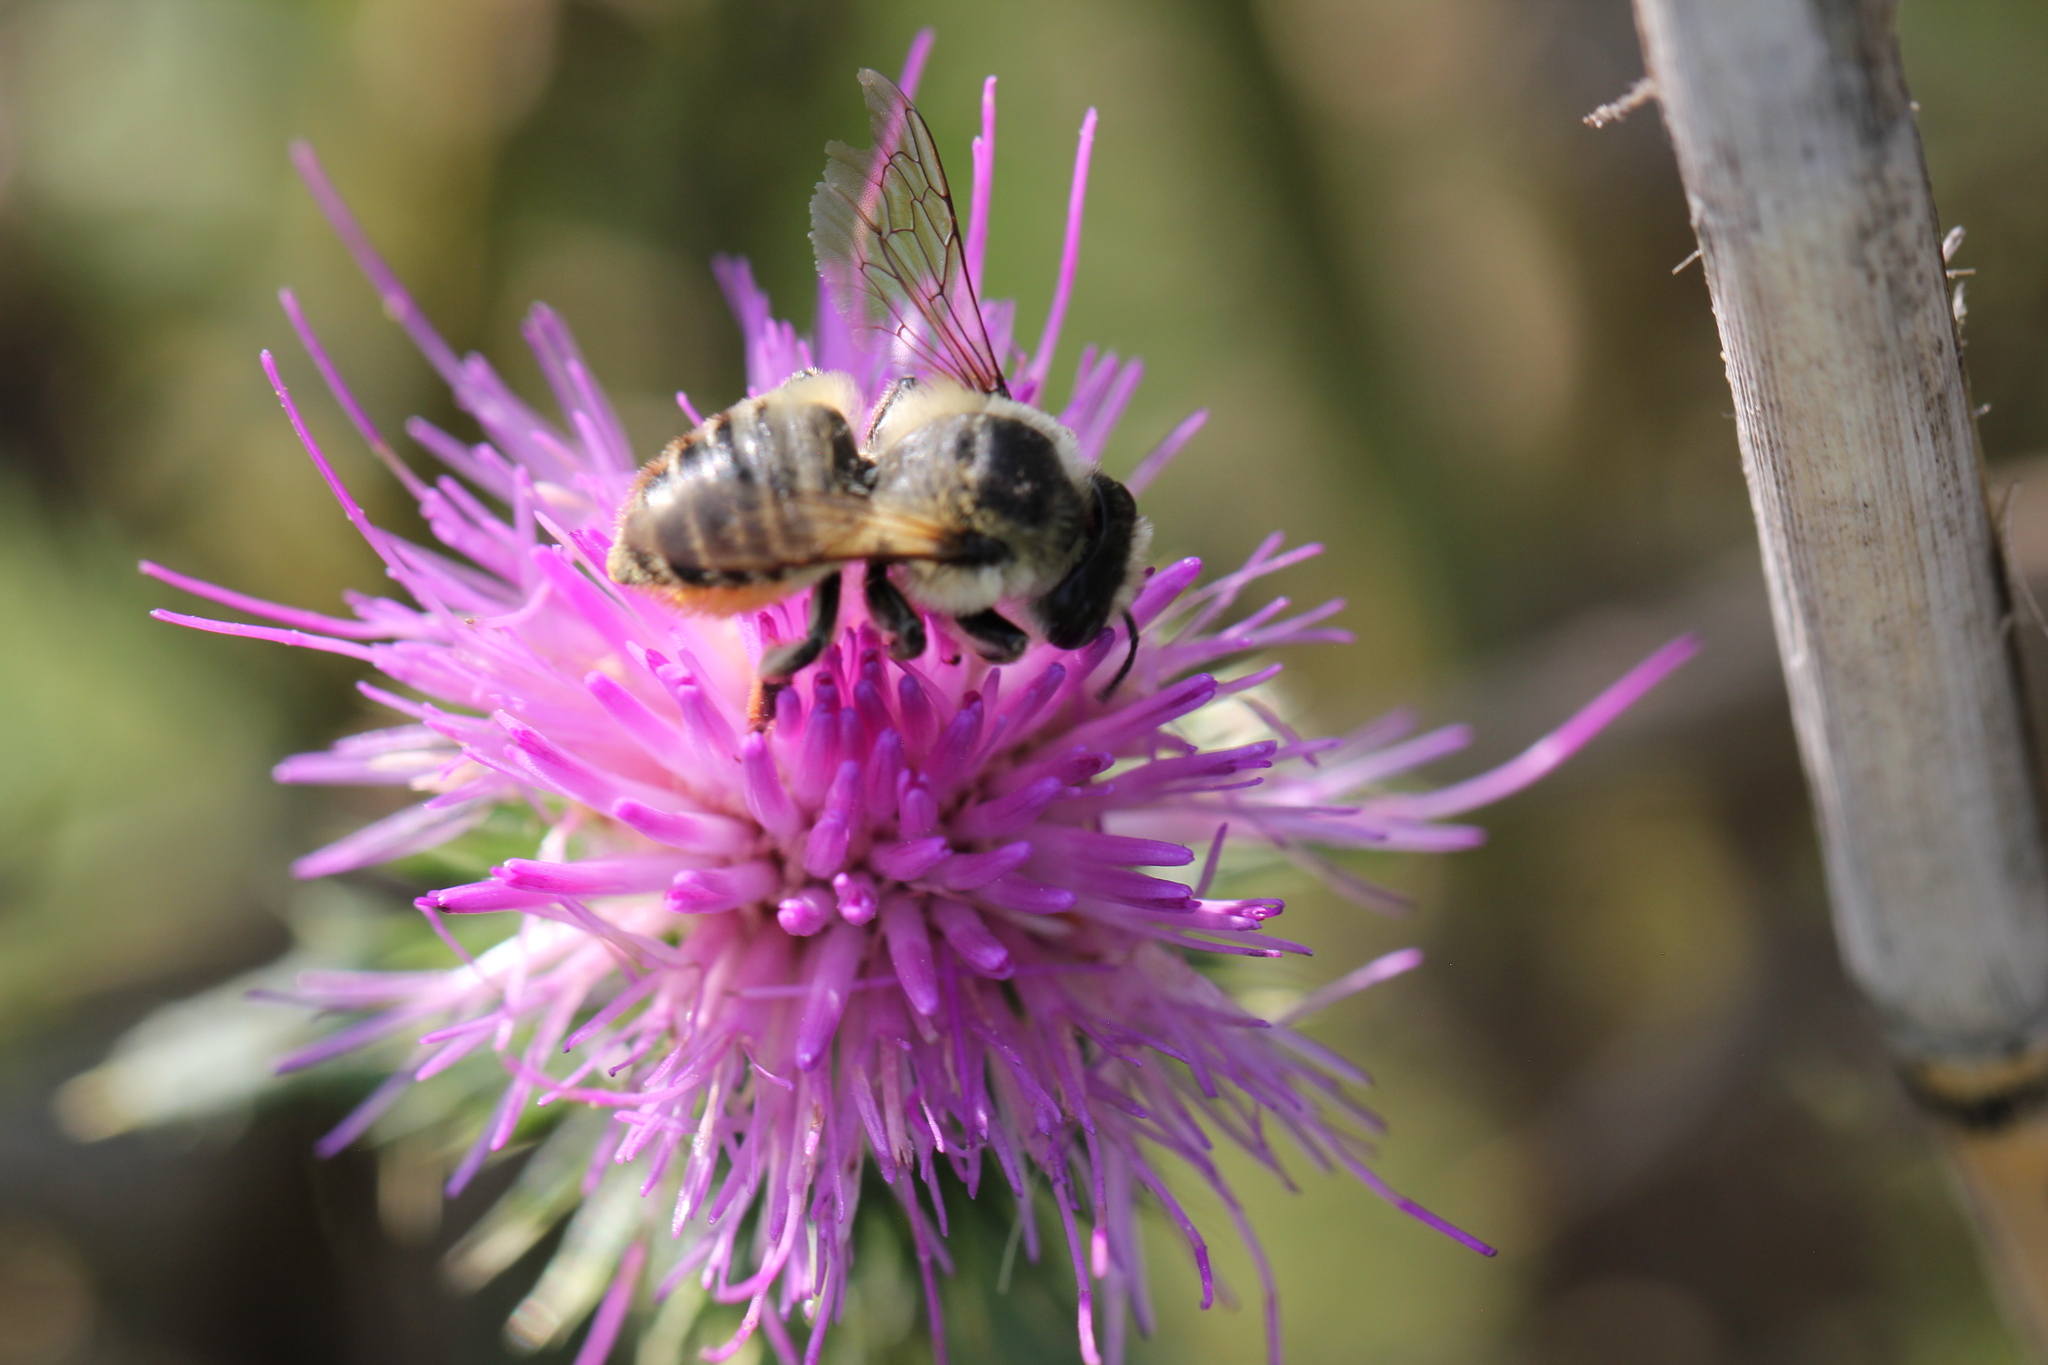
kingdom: Animalia
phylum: Arthropoda
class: Insecta
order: Hymenoptera
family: Megachilidae
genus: Megachile
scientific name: Megachile latimanus
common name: Leafcutting bee
